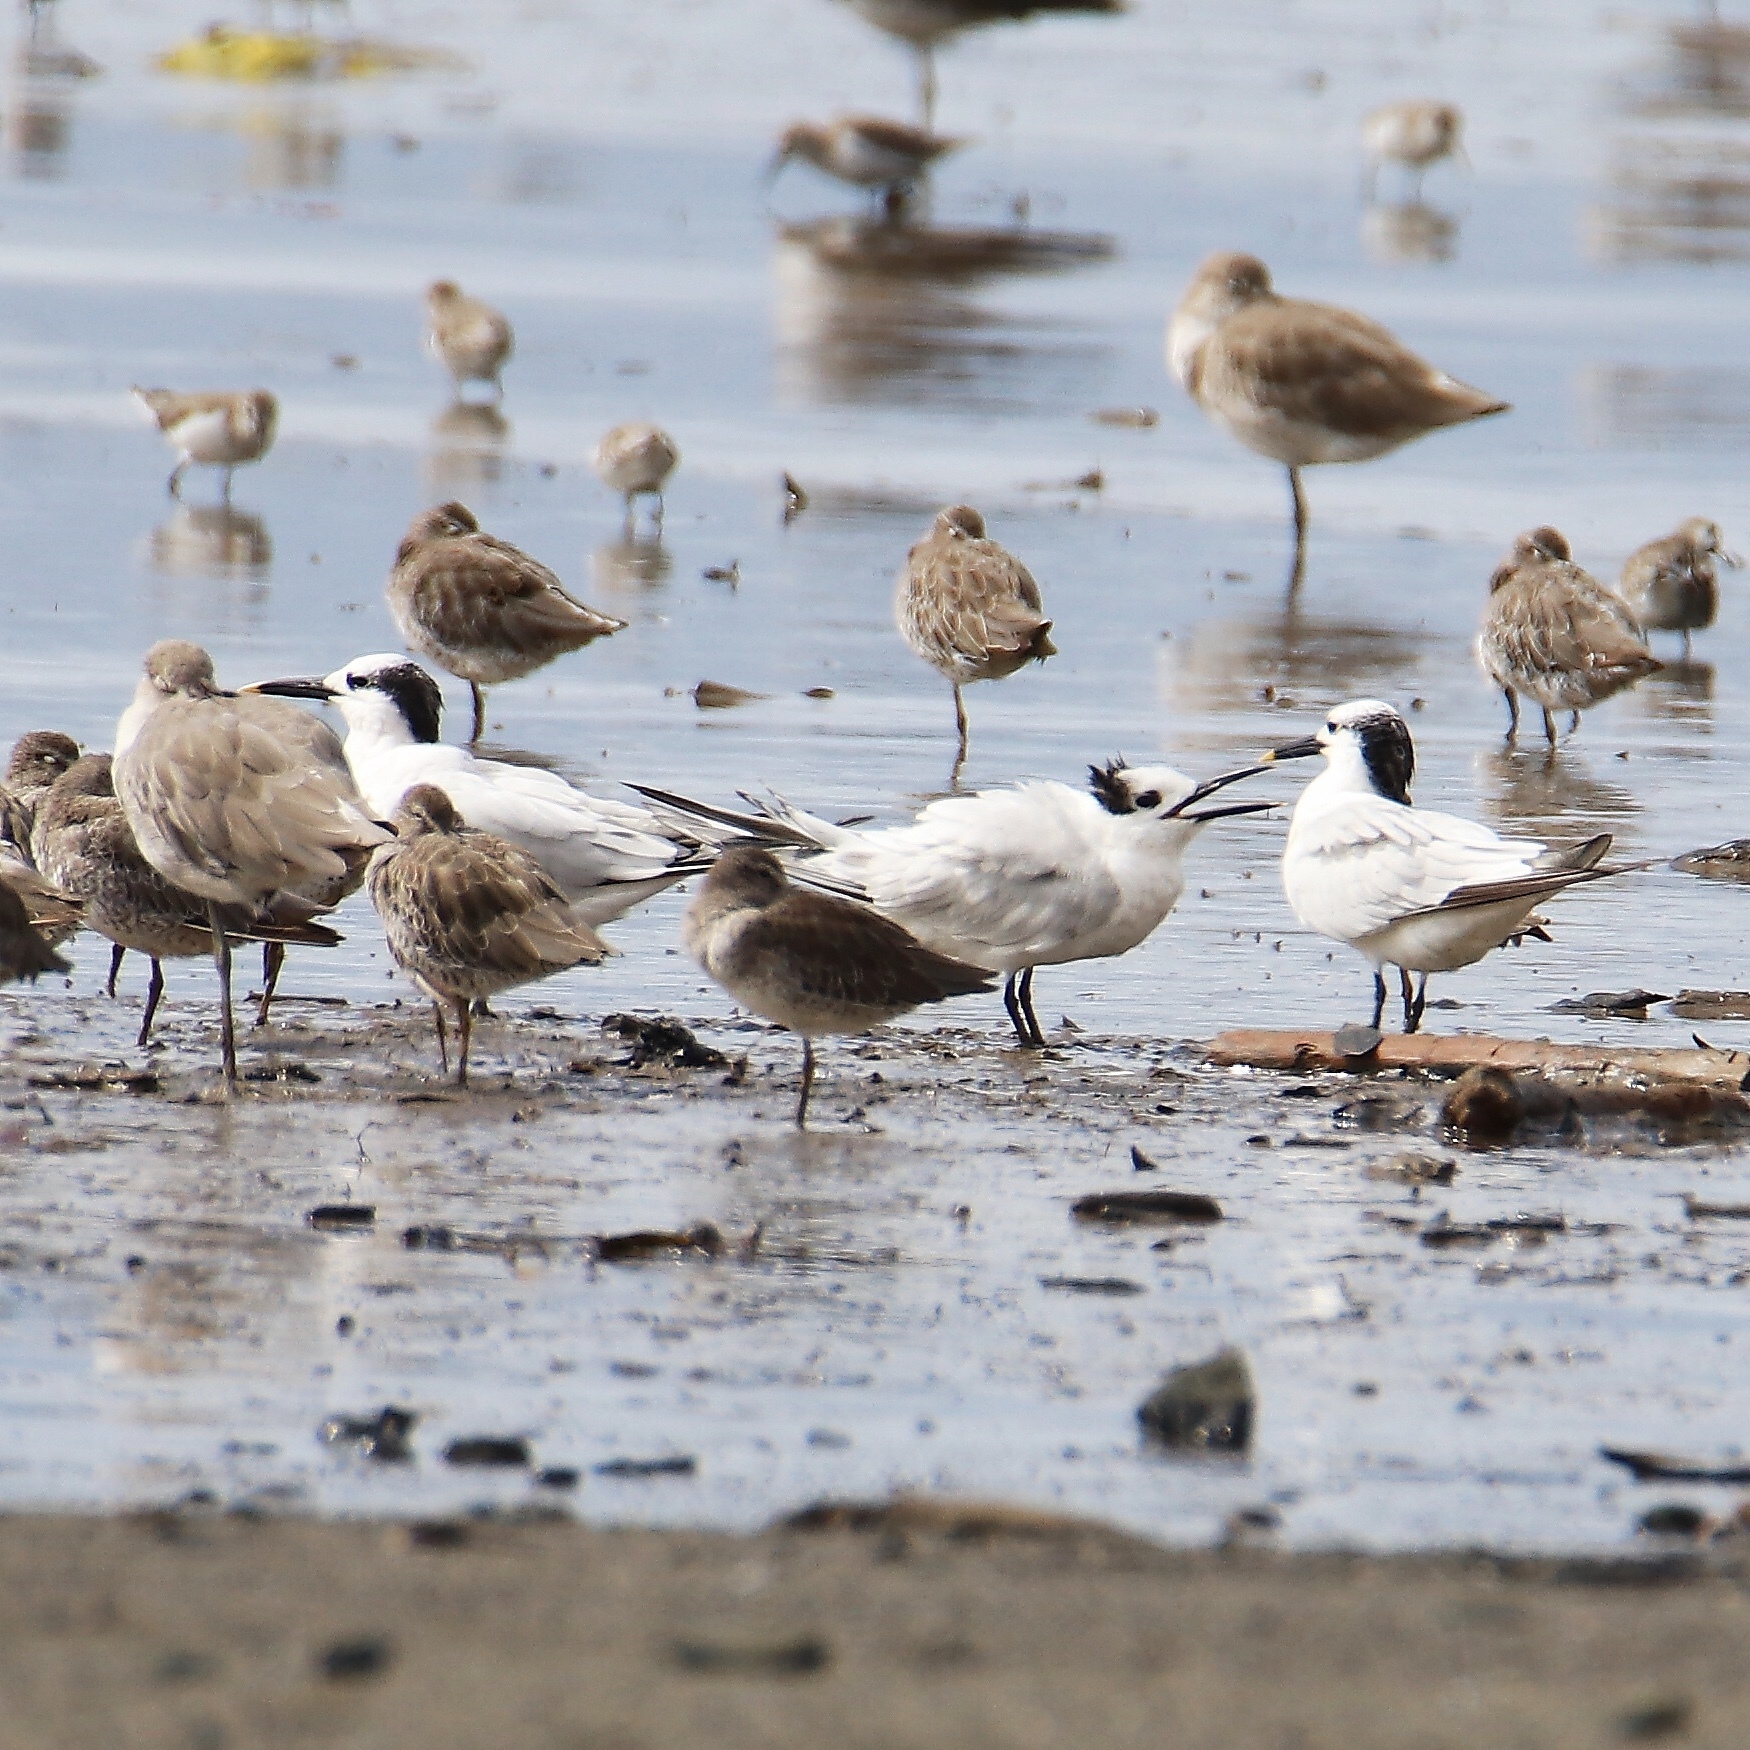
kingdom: Animalia
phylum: Chordata
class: Aves
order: Charadriiformes
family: Laridae
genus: Thalasseus
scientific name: Thalasseus sandvicensis
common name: Sandwich tern
